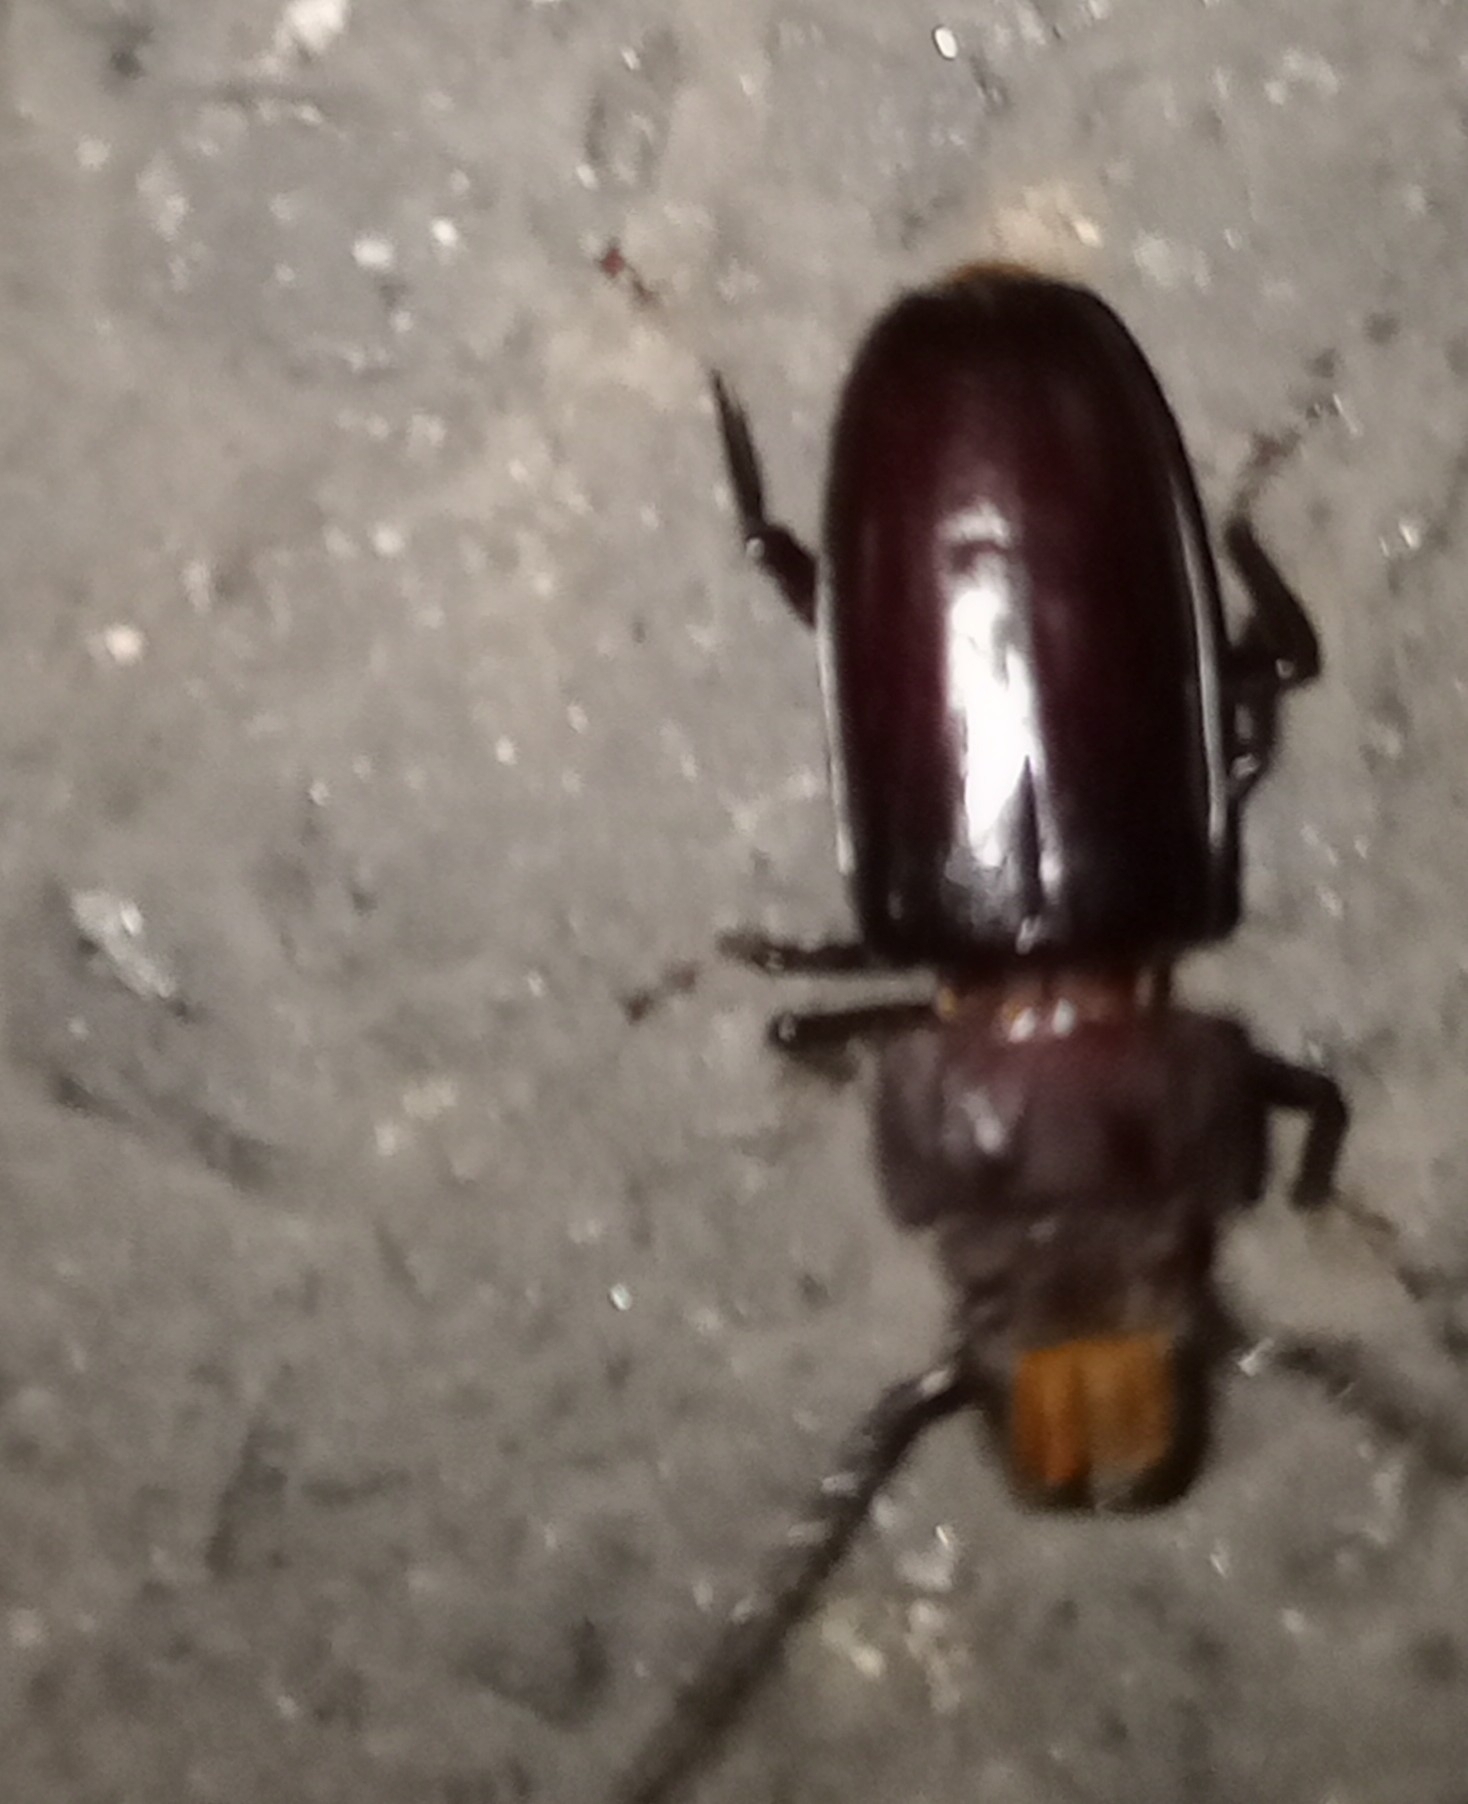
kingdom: Animalia
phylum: Arthropoda
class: Insecta
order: Coleoptera
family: Cerambycidae
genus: Mallodon
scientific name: Mallodon dasystomum
